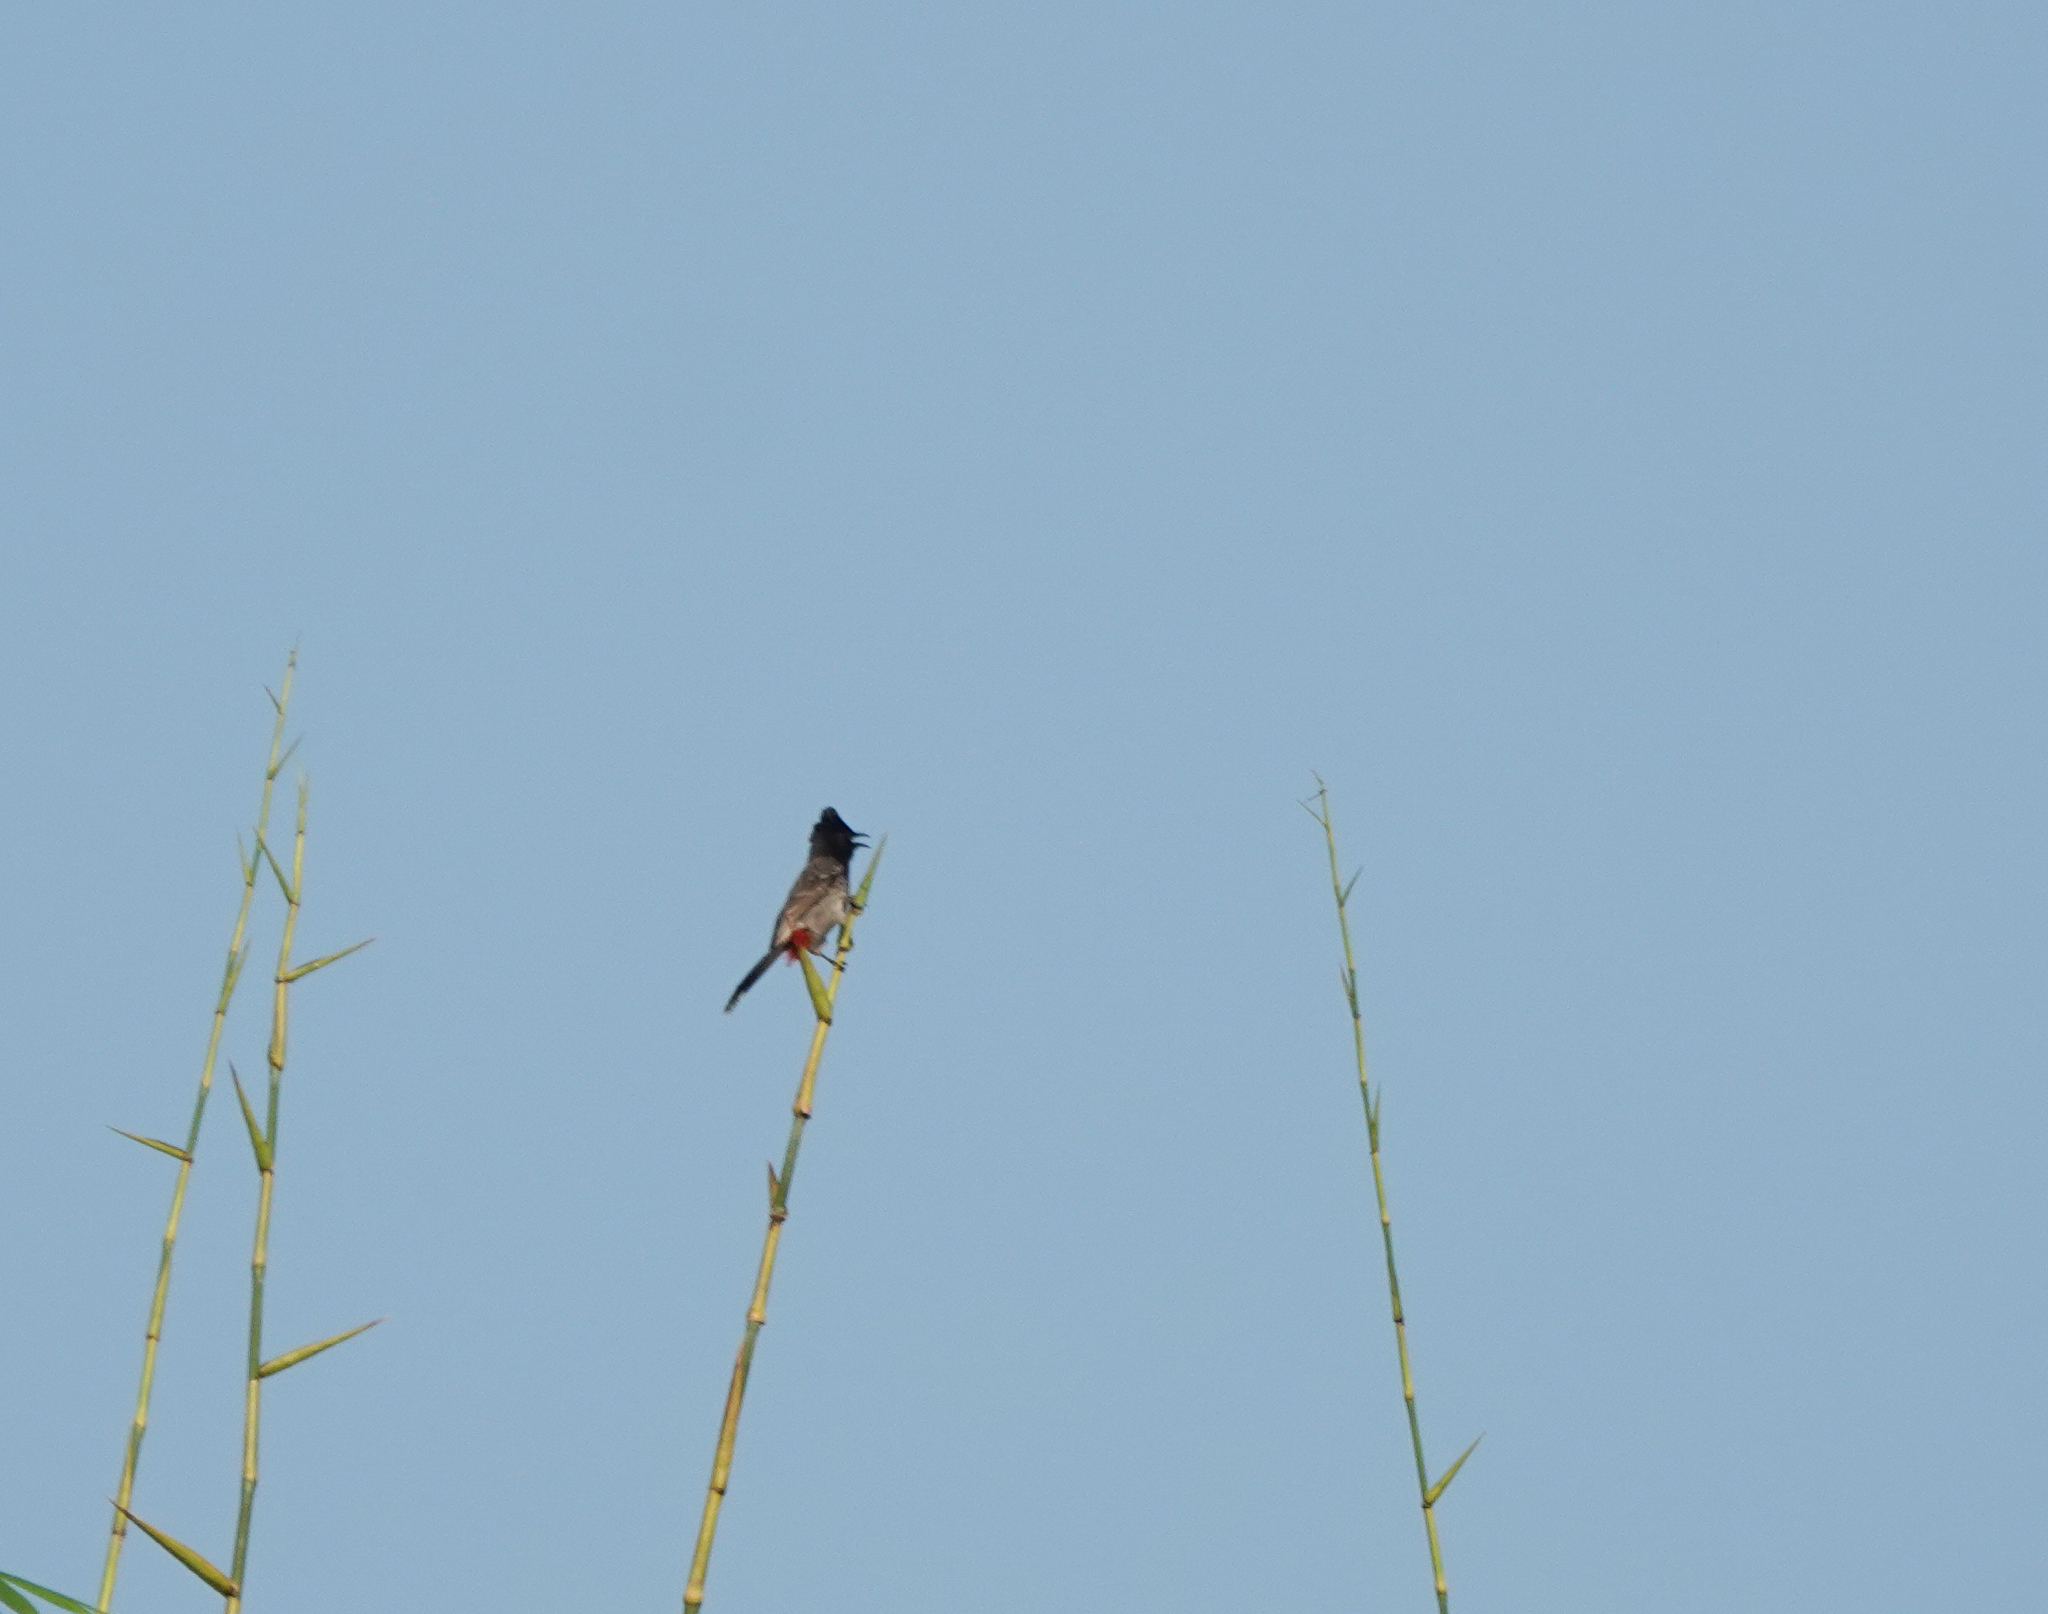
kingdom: Animalia
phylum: Chordata
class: Aves
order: Passeriformes
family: Pycnonotidae
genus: Pycnonotus
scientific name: Pycnonotus cafer
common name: Red-vented bulbul
